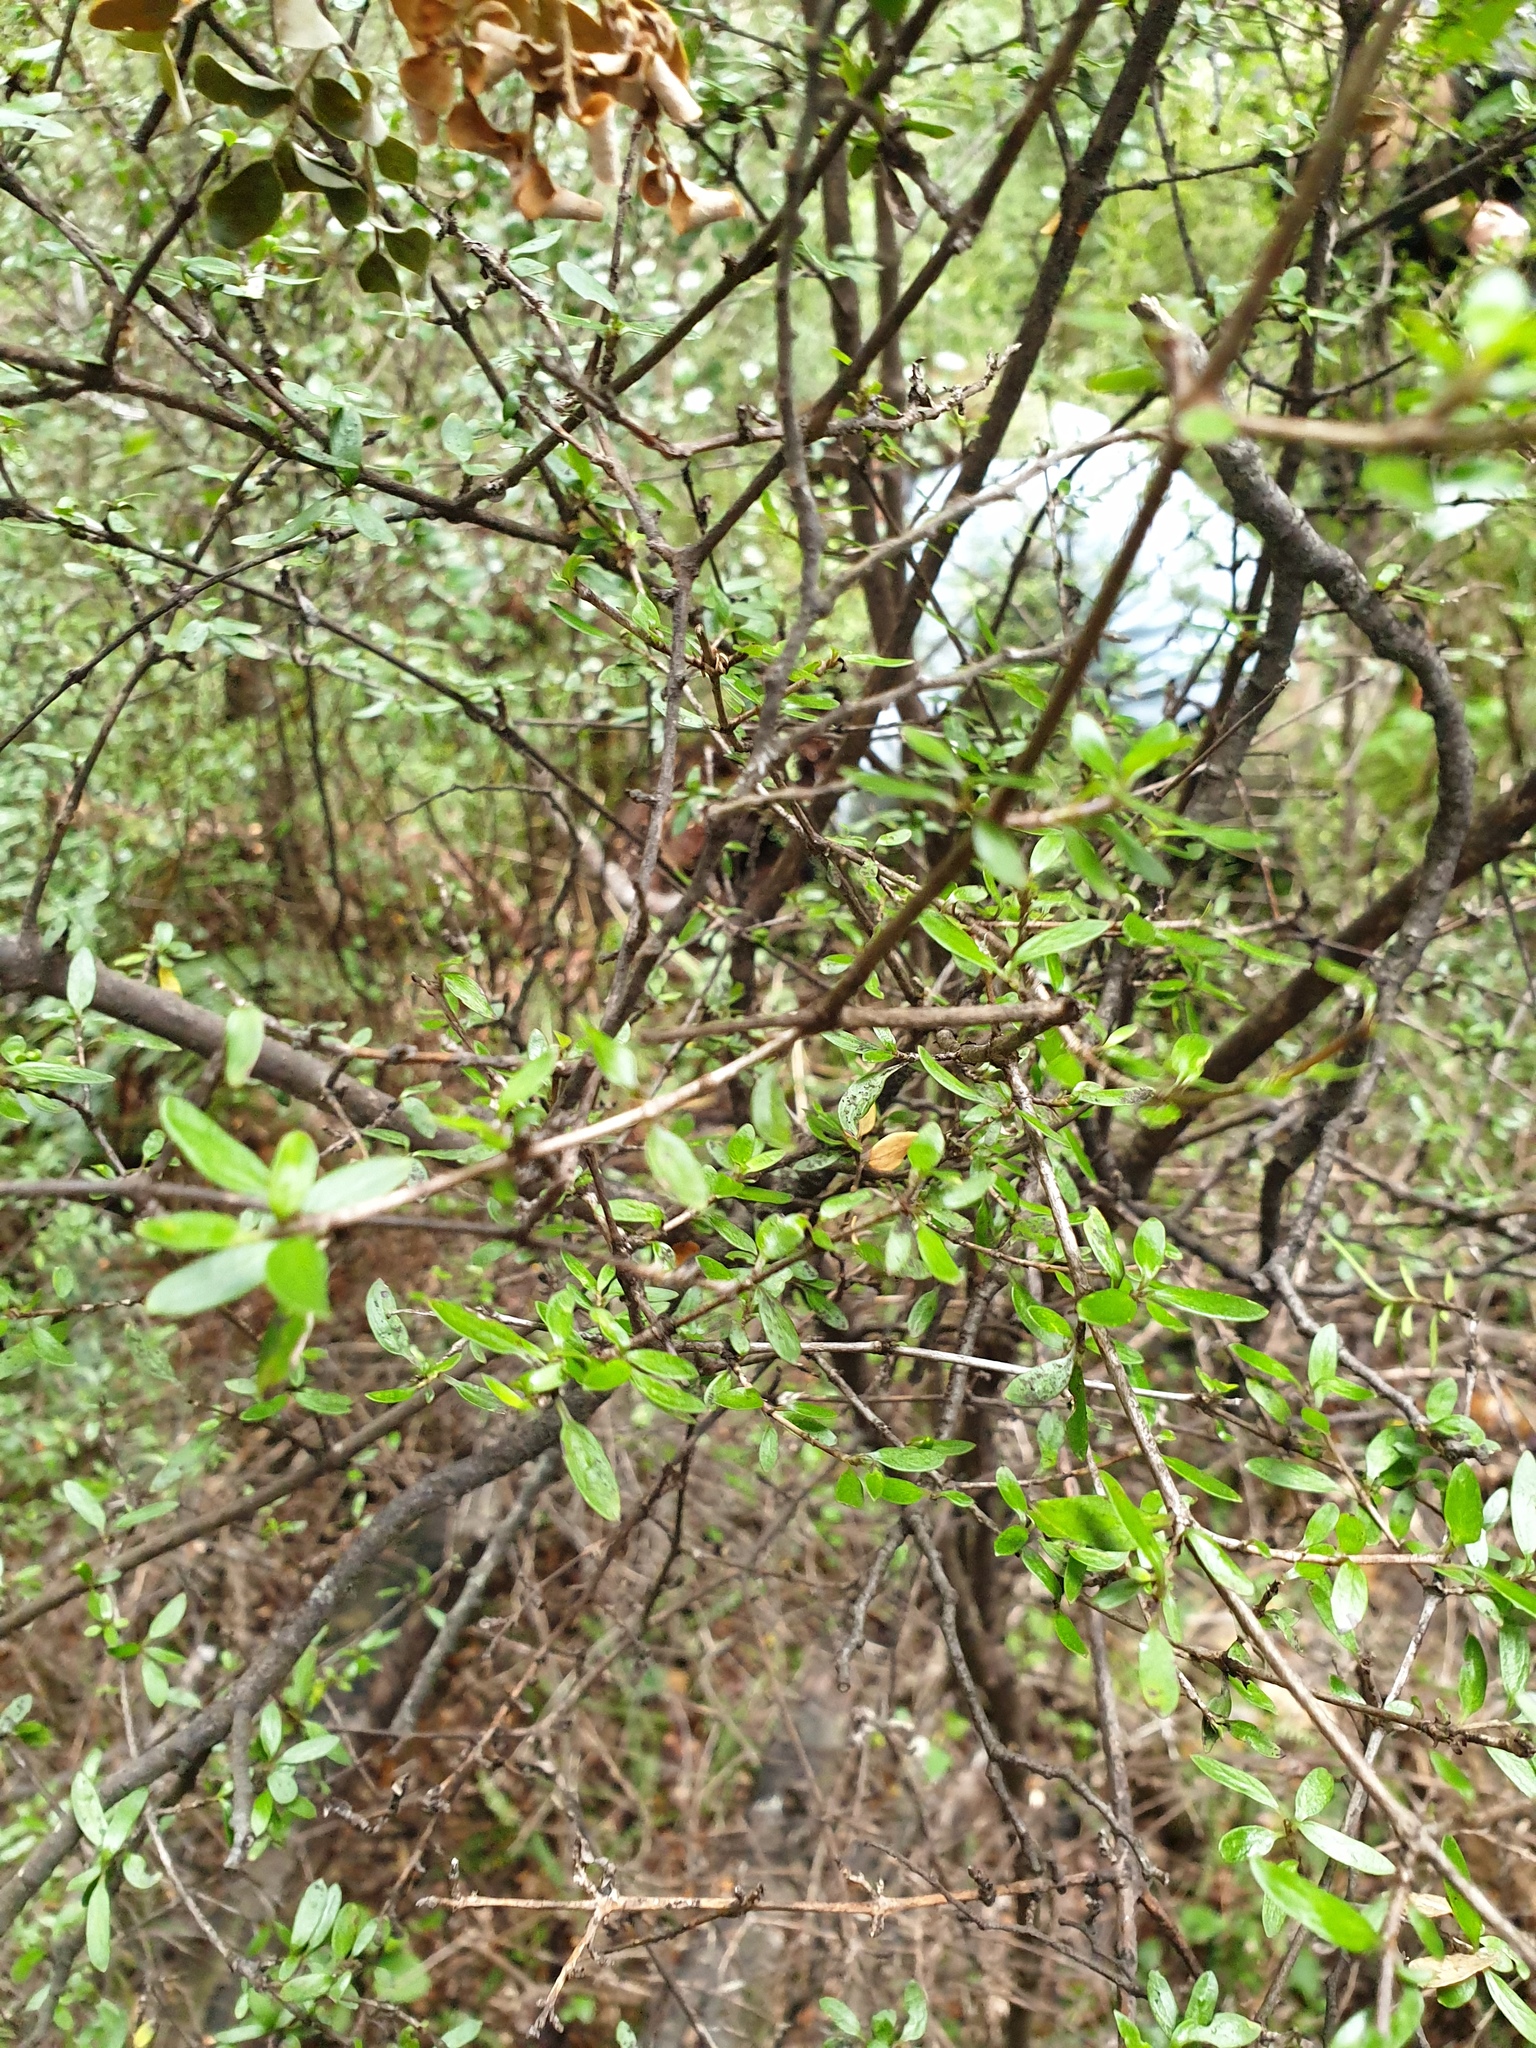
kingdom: Plantae
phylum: Tracheophyta
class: Magnoliopsida
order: Gentianales
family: Rubiaceae
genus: Coprosma
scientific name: Coprosma propinqua
